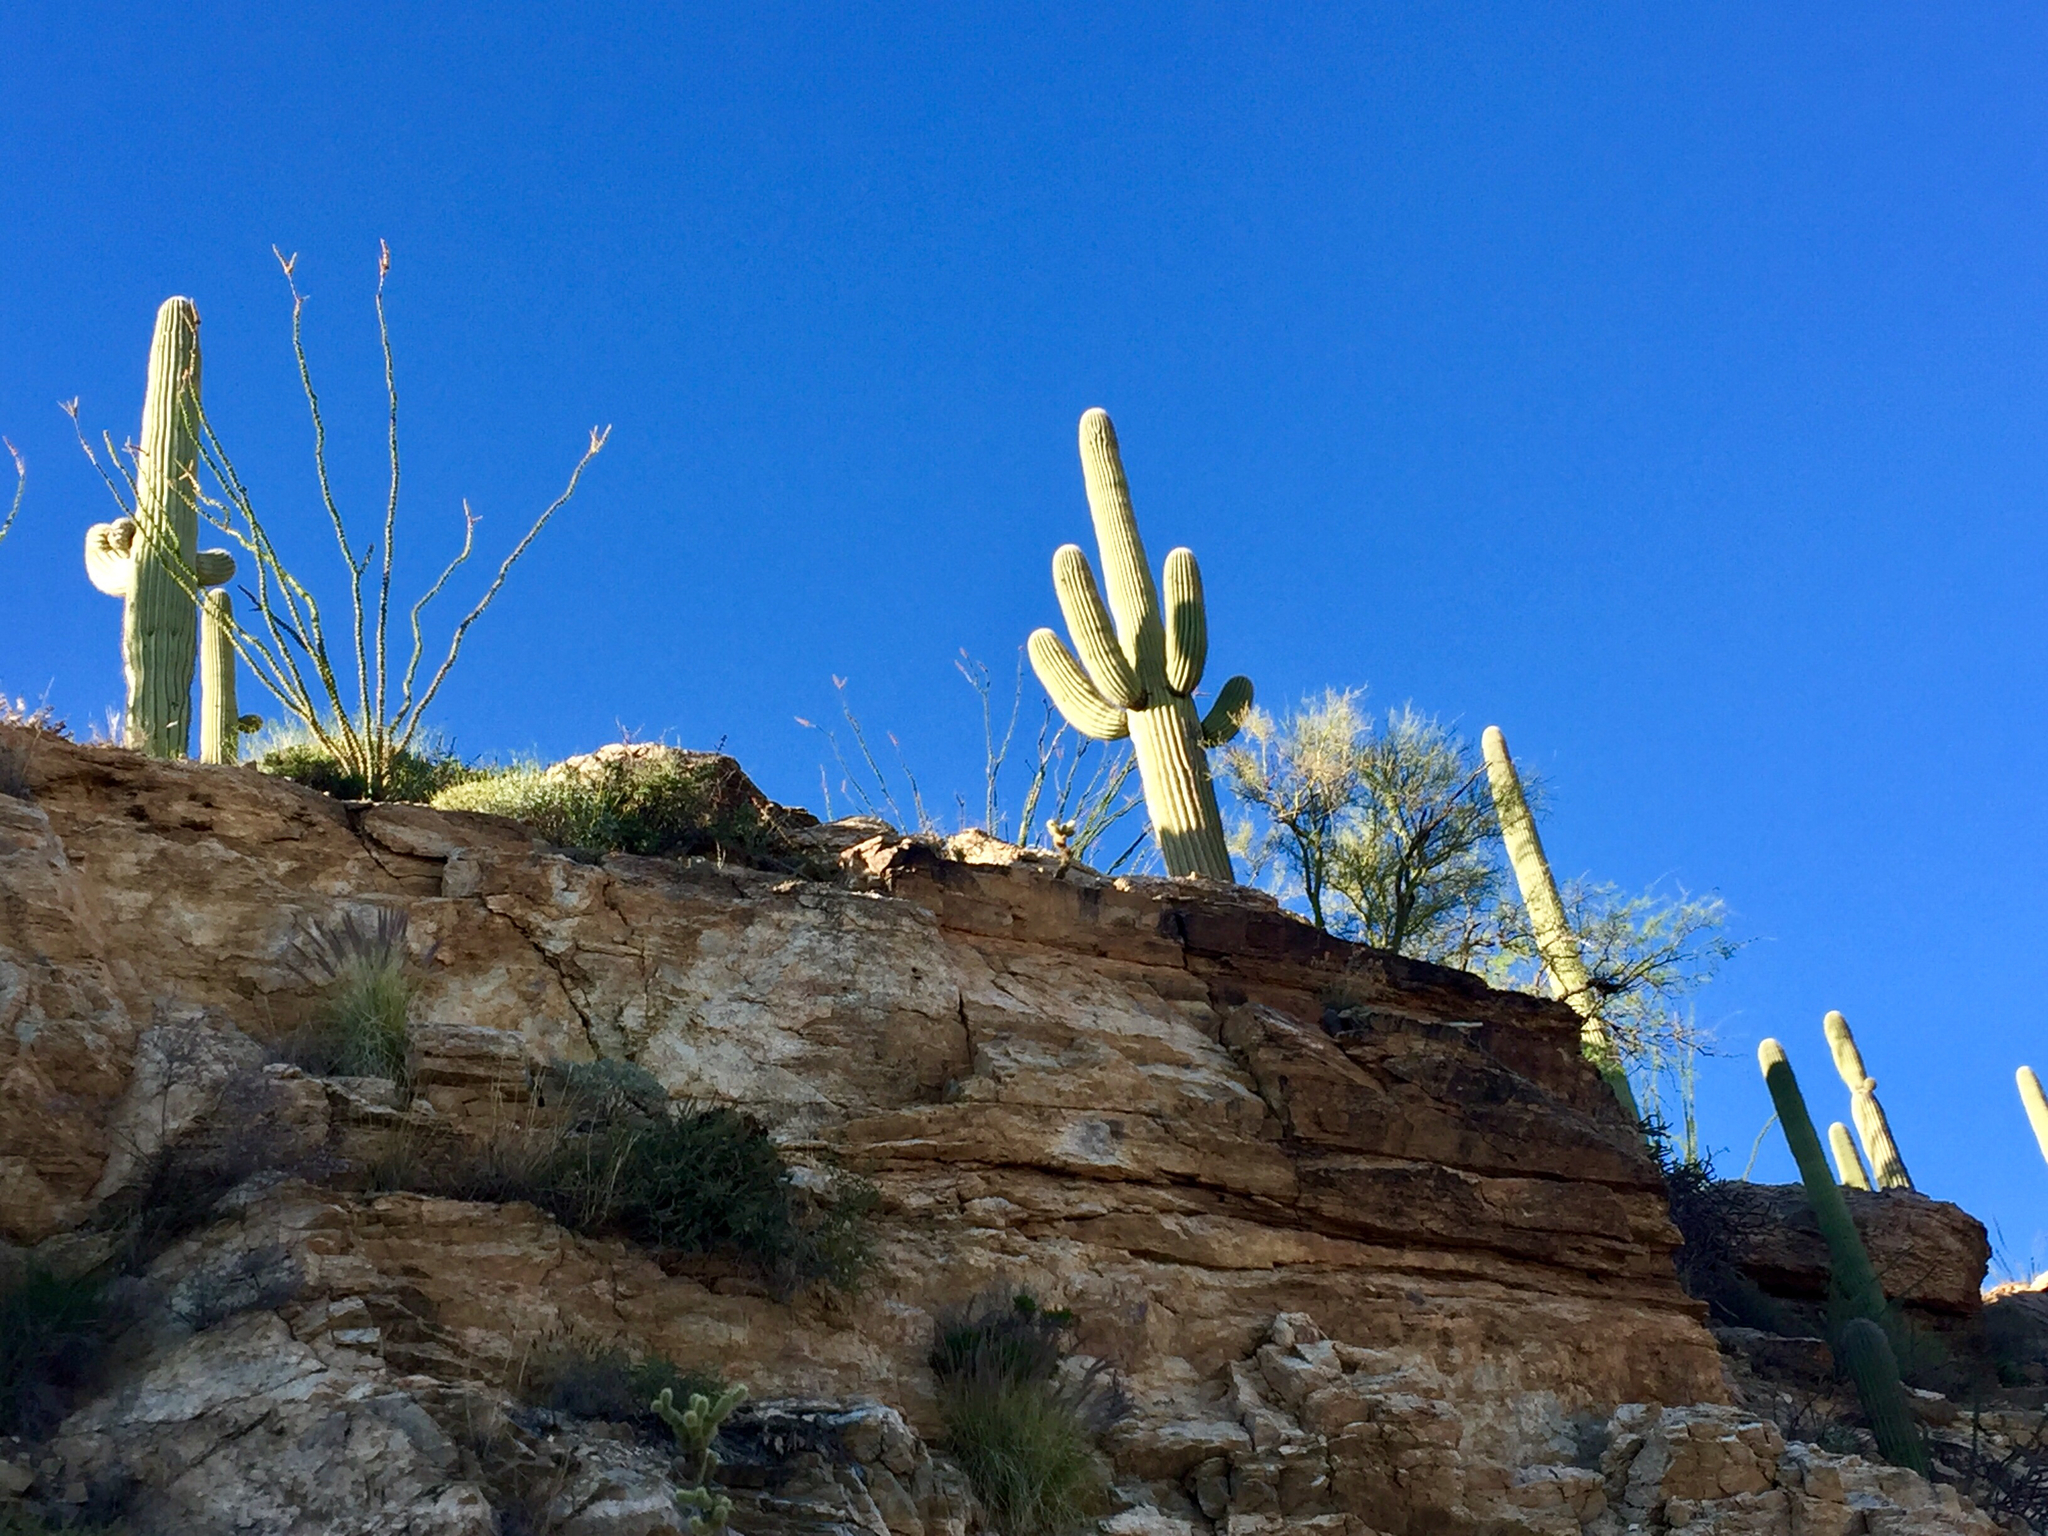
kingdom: Plantae
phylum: Tracheophyta
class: Magnoliopsida
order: Caryophyllales
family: Cactaceae
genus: Carnegiea
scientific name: Carnegiea gigantea
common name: Saguaro
